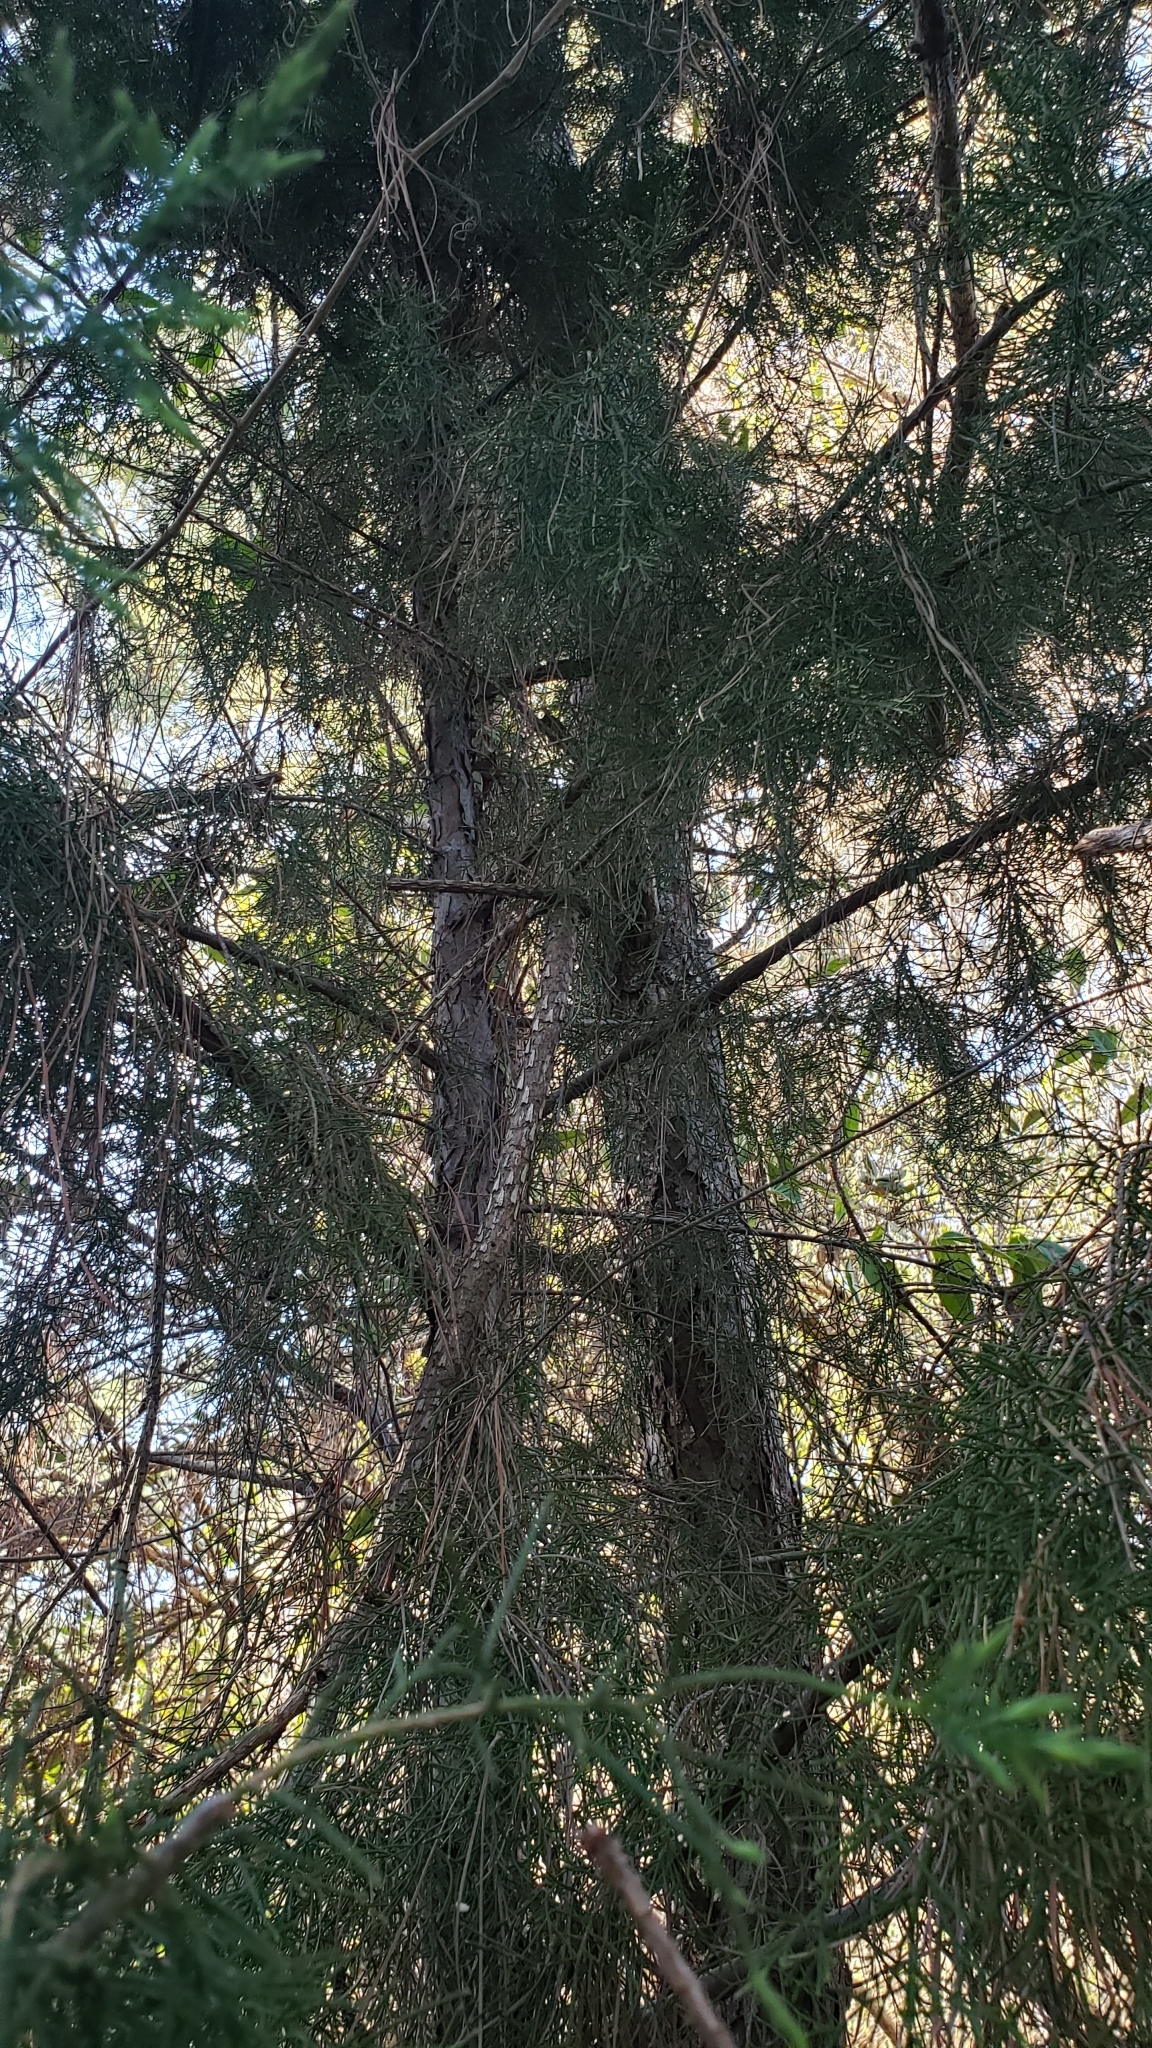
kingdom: Plantae
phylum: Tracheophyta
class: Pinopsida
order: Pinales
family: Cupressaceae
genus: Juniperus
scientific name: Juniperus virginiana
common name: Red juniper
